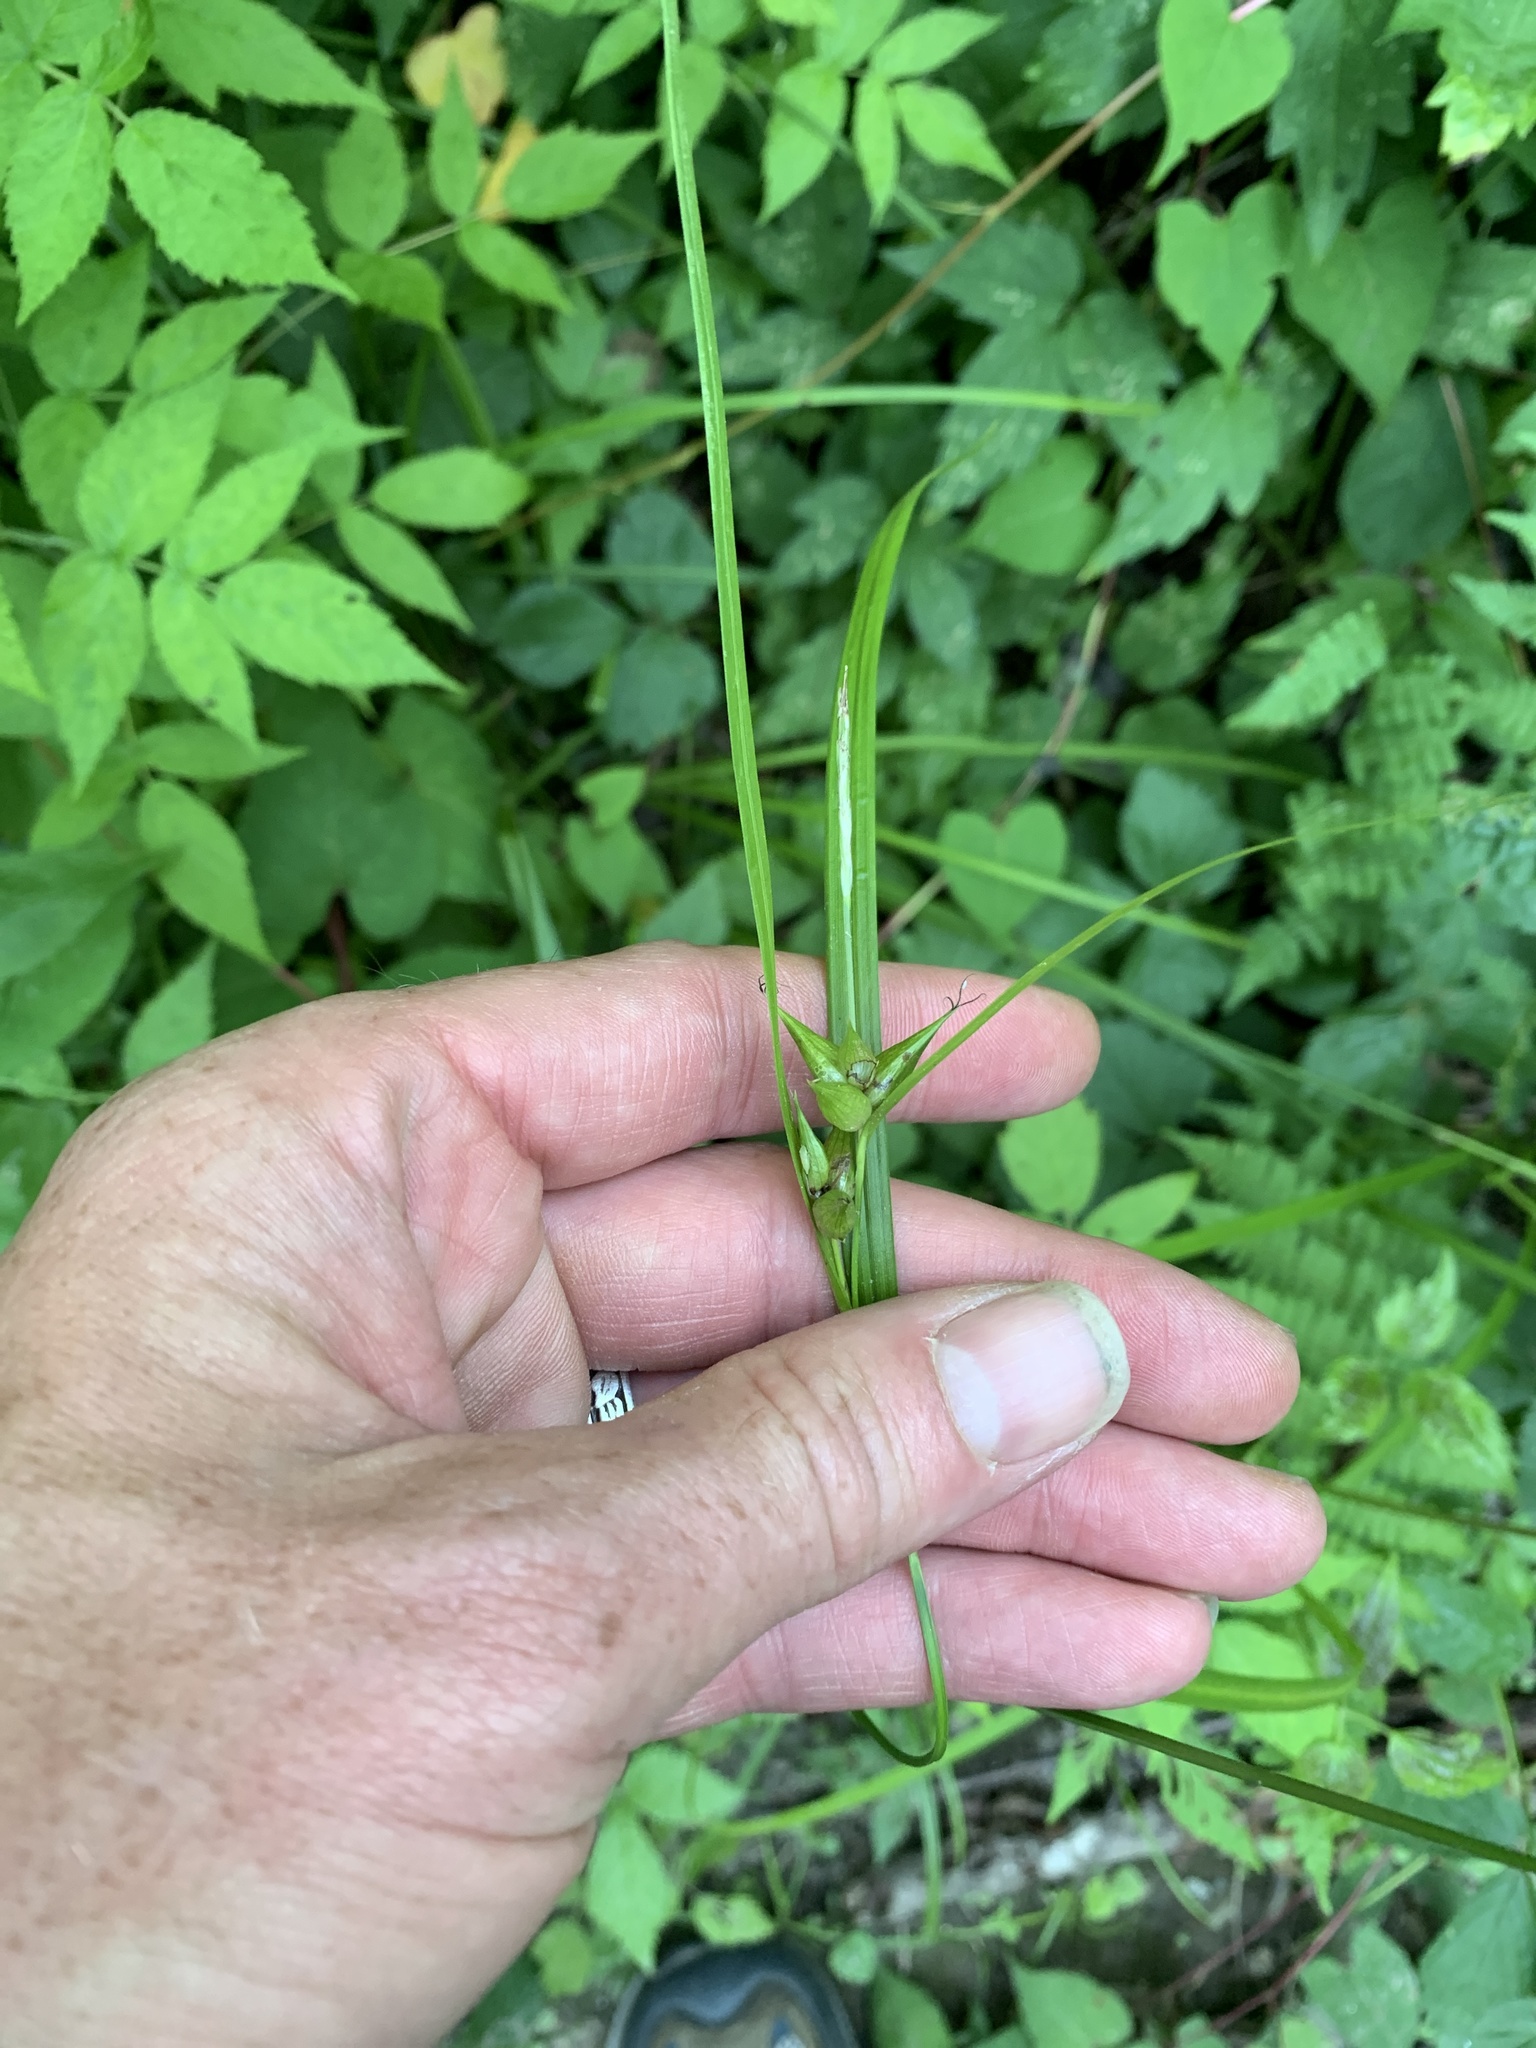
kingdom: Plantae
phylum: Tracheophyta
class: Liliopsida
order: Poales
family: Cyperaceae
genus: Carex
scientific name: Carex intumescens
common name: Greater bladder sedge
